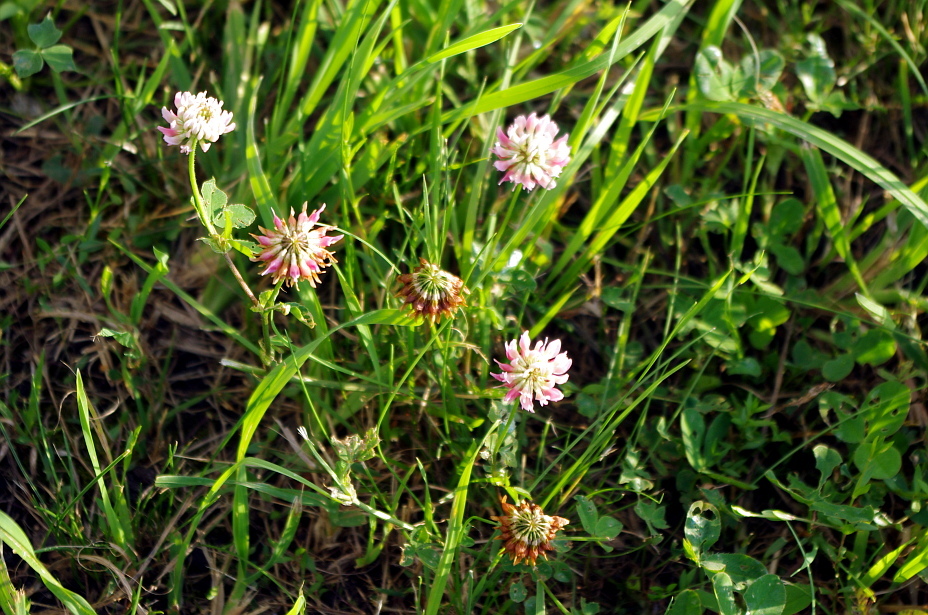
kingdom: Plantae
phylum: Tracheophyta
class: Magnoliopsida
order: Fabales
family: Fabaceae
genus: Trifolium
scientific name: Trifolium hybridum
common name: Alsike clover
